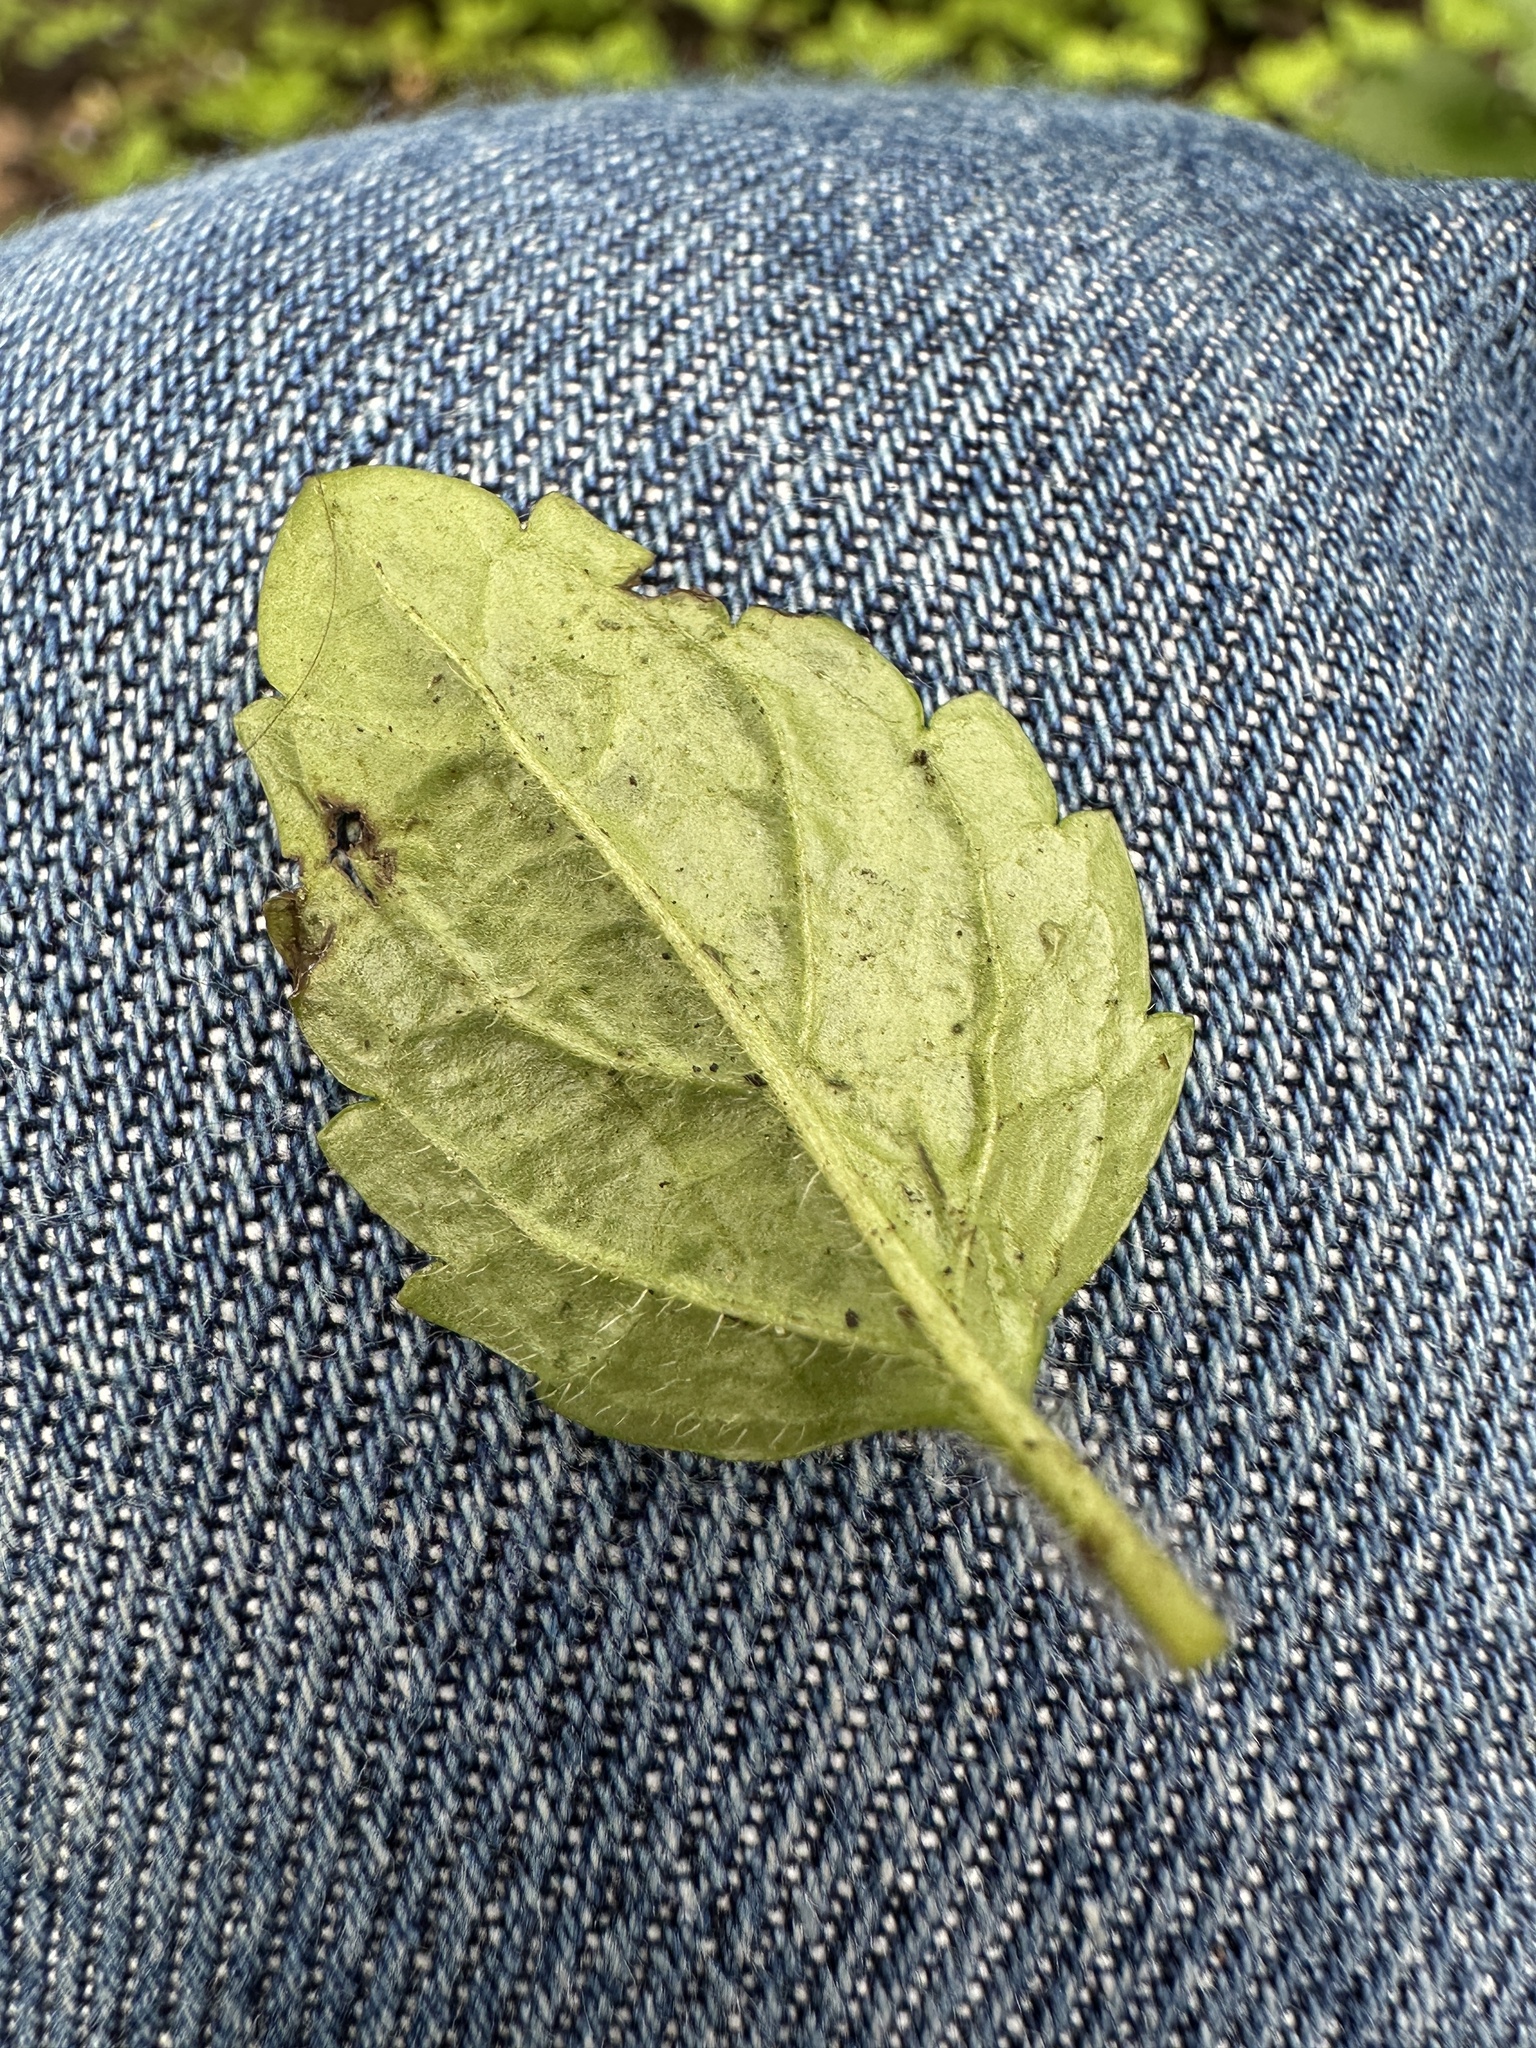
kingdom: Plantae
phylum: Tracheophyta
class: Magnoliopsida
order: Lamiales
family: Plantaginaceae
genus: Veronica
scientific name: Veronica montana
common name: Wood speedwell
